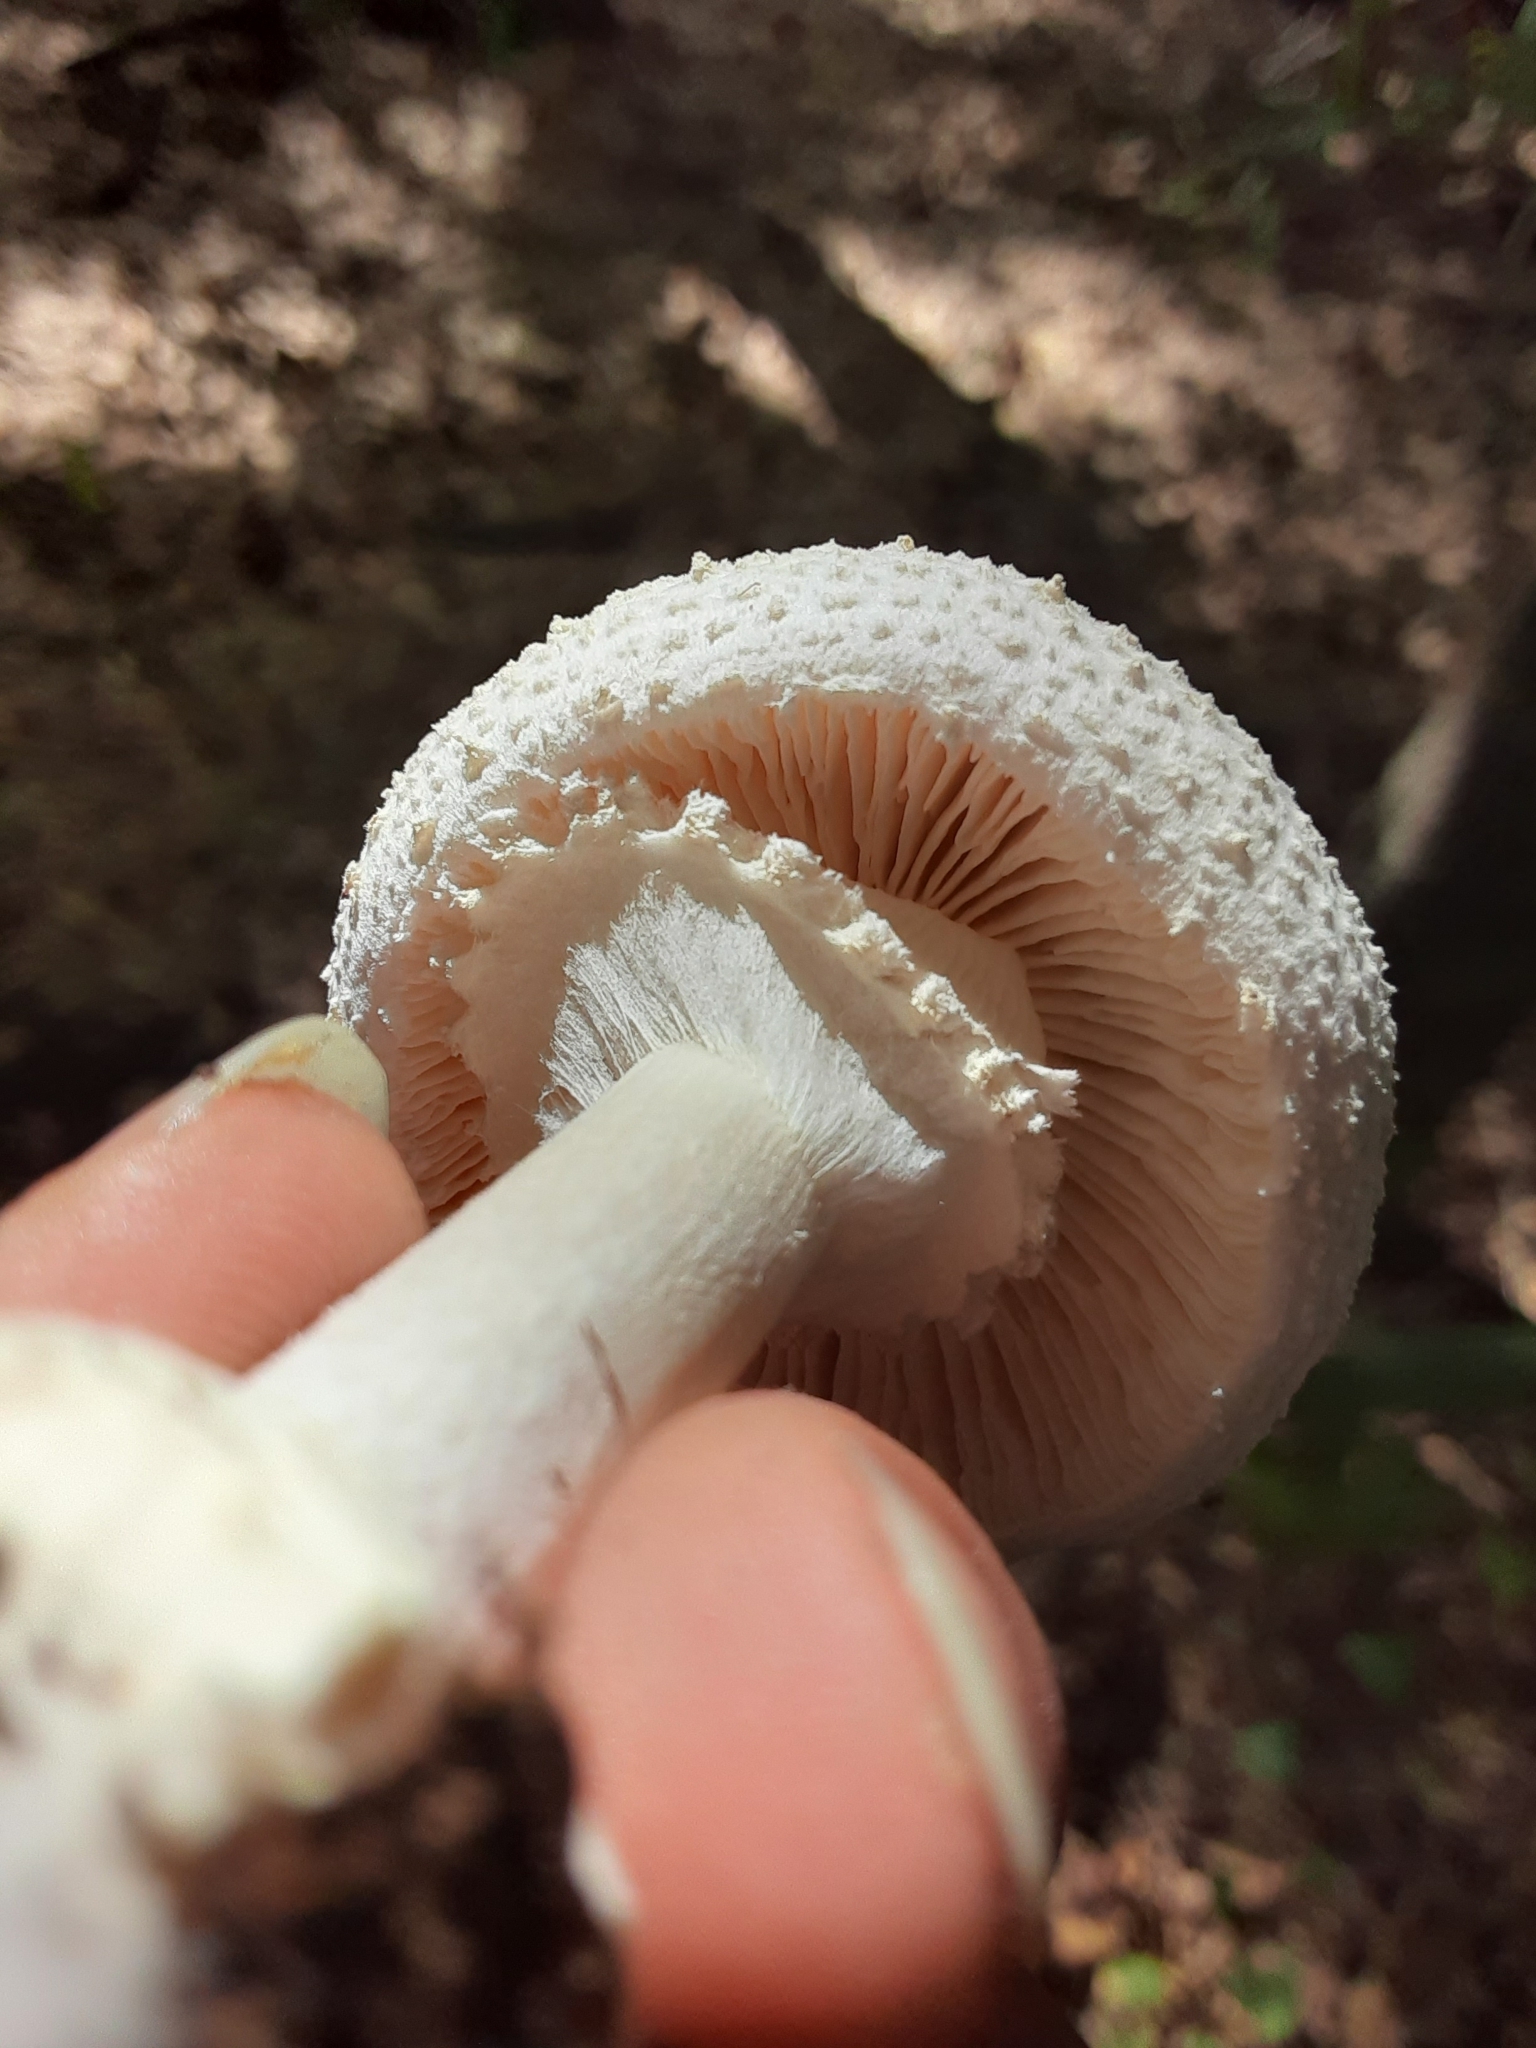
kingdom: Fungi
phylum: Basidiomycota
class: Agaricomycetes
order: Agaricales
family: Amanitaceae
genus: Amanita
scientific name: Amanita abrupta
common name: American abrupt-bulbed lepidella
